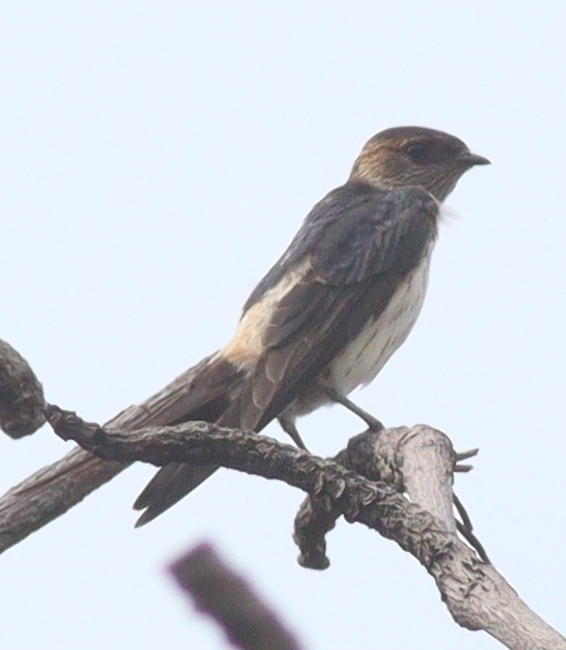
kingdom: Animalia
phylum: Chordata
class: Aves
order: Passeriformes
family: Hirundinidae
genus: Cecropis
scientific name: Cecropis striolata
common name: Striated swallow
